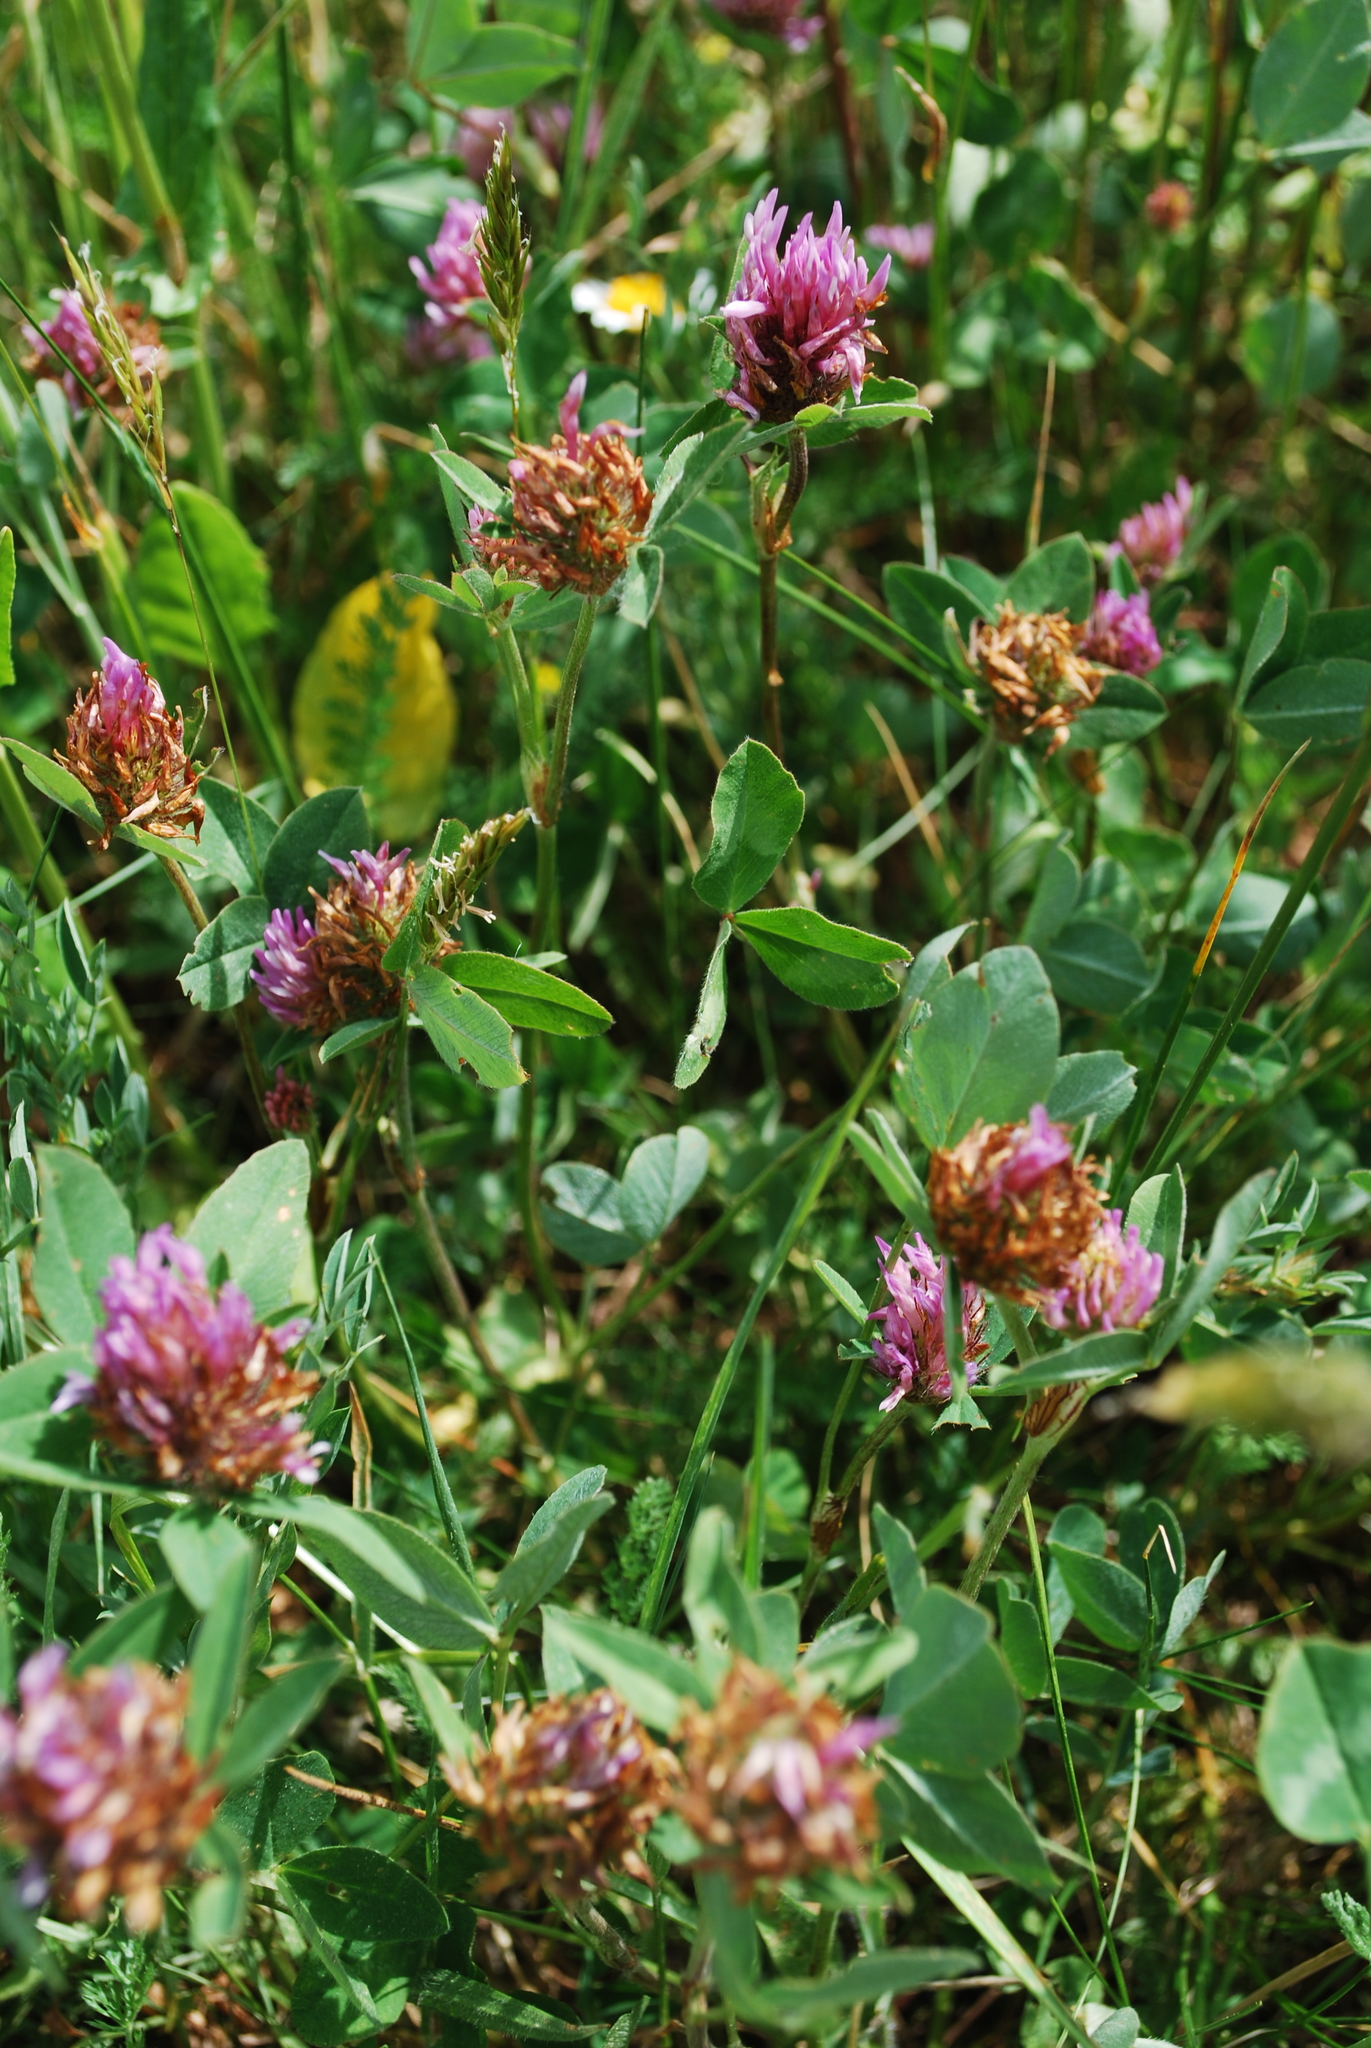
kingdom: Plantae
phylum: Tracheophyta
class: Magnoliopsida
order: Fabales
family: Fabaceae
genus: Trifolium
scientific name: Trifolium pratense
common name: Red clover
